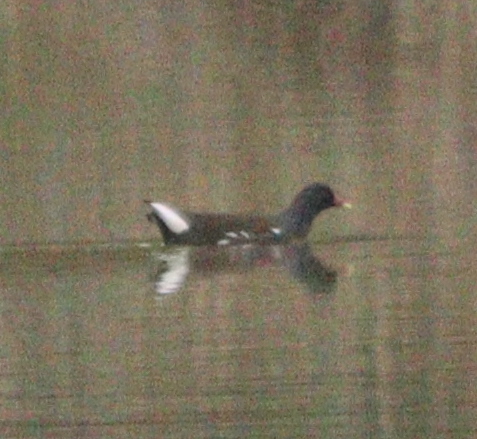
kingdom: Animalia
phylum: Chordata
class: Aves
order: Gruiformes
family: Rallidae
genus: Gallinula
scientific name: Gallinula chloropus
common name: Common moorhen
